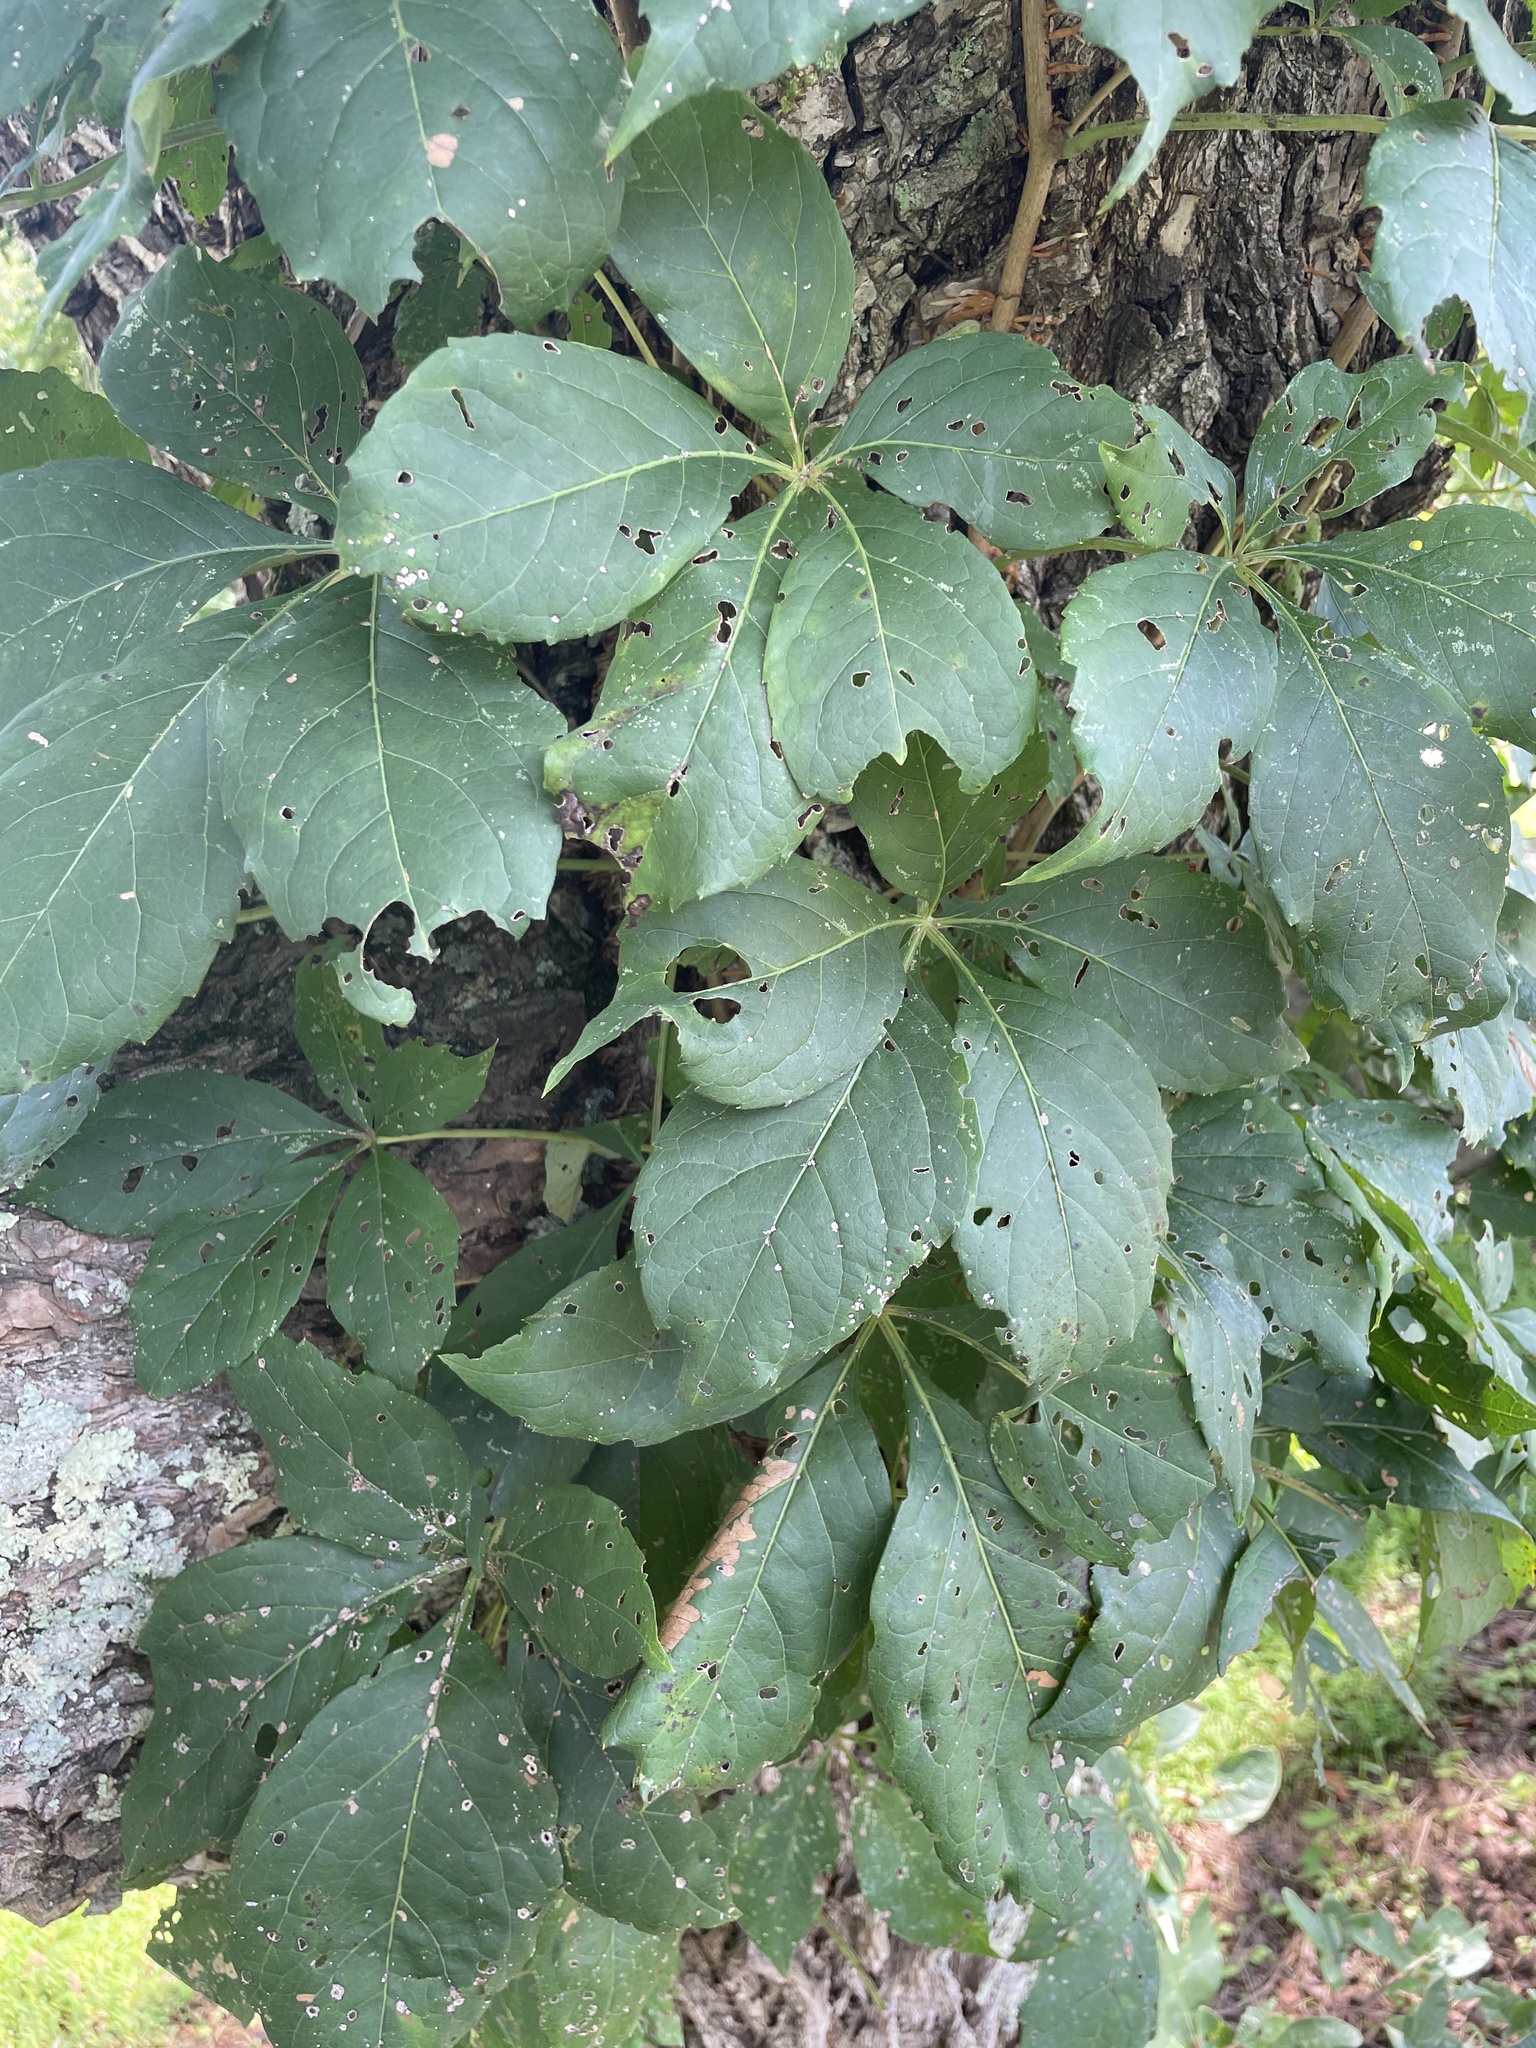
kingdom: Plantae
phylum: Tracheophyta
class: Magnoliopsida
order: Vitales
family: Vitaceae
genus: Parthenocissus
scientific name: Parthenocissus quinquefolia
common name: Virginia-creeper
